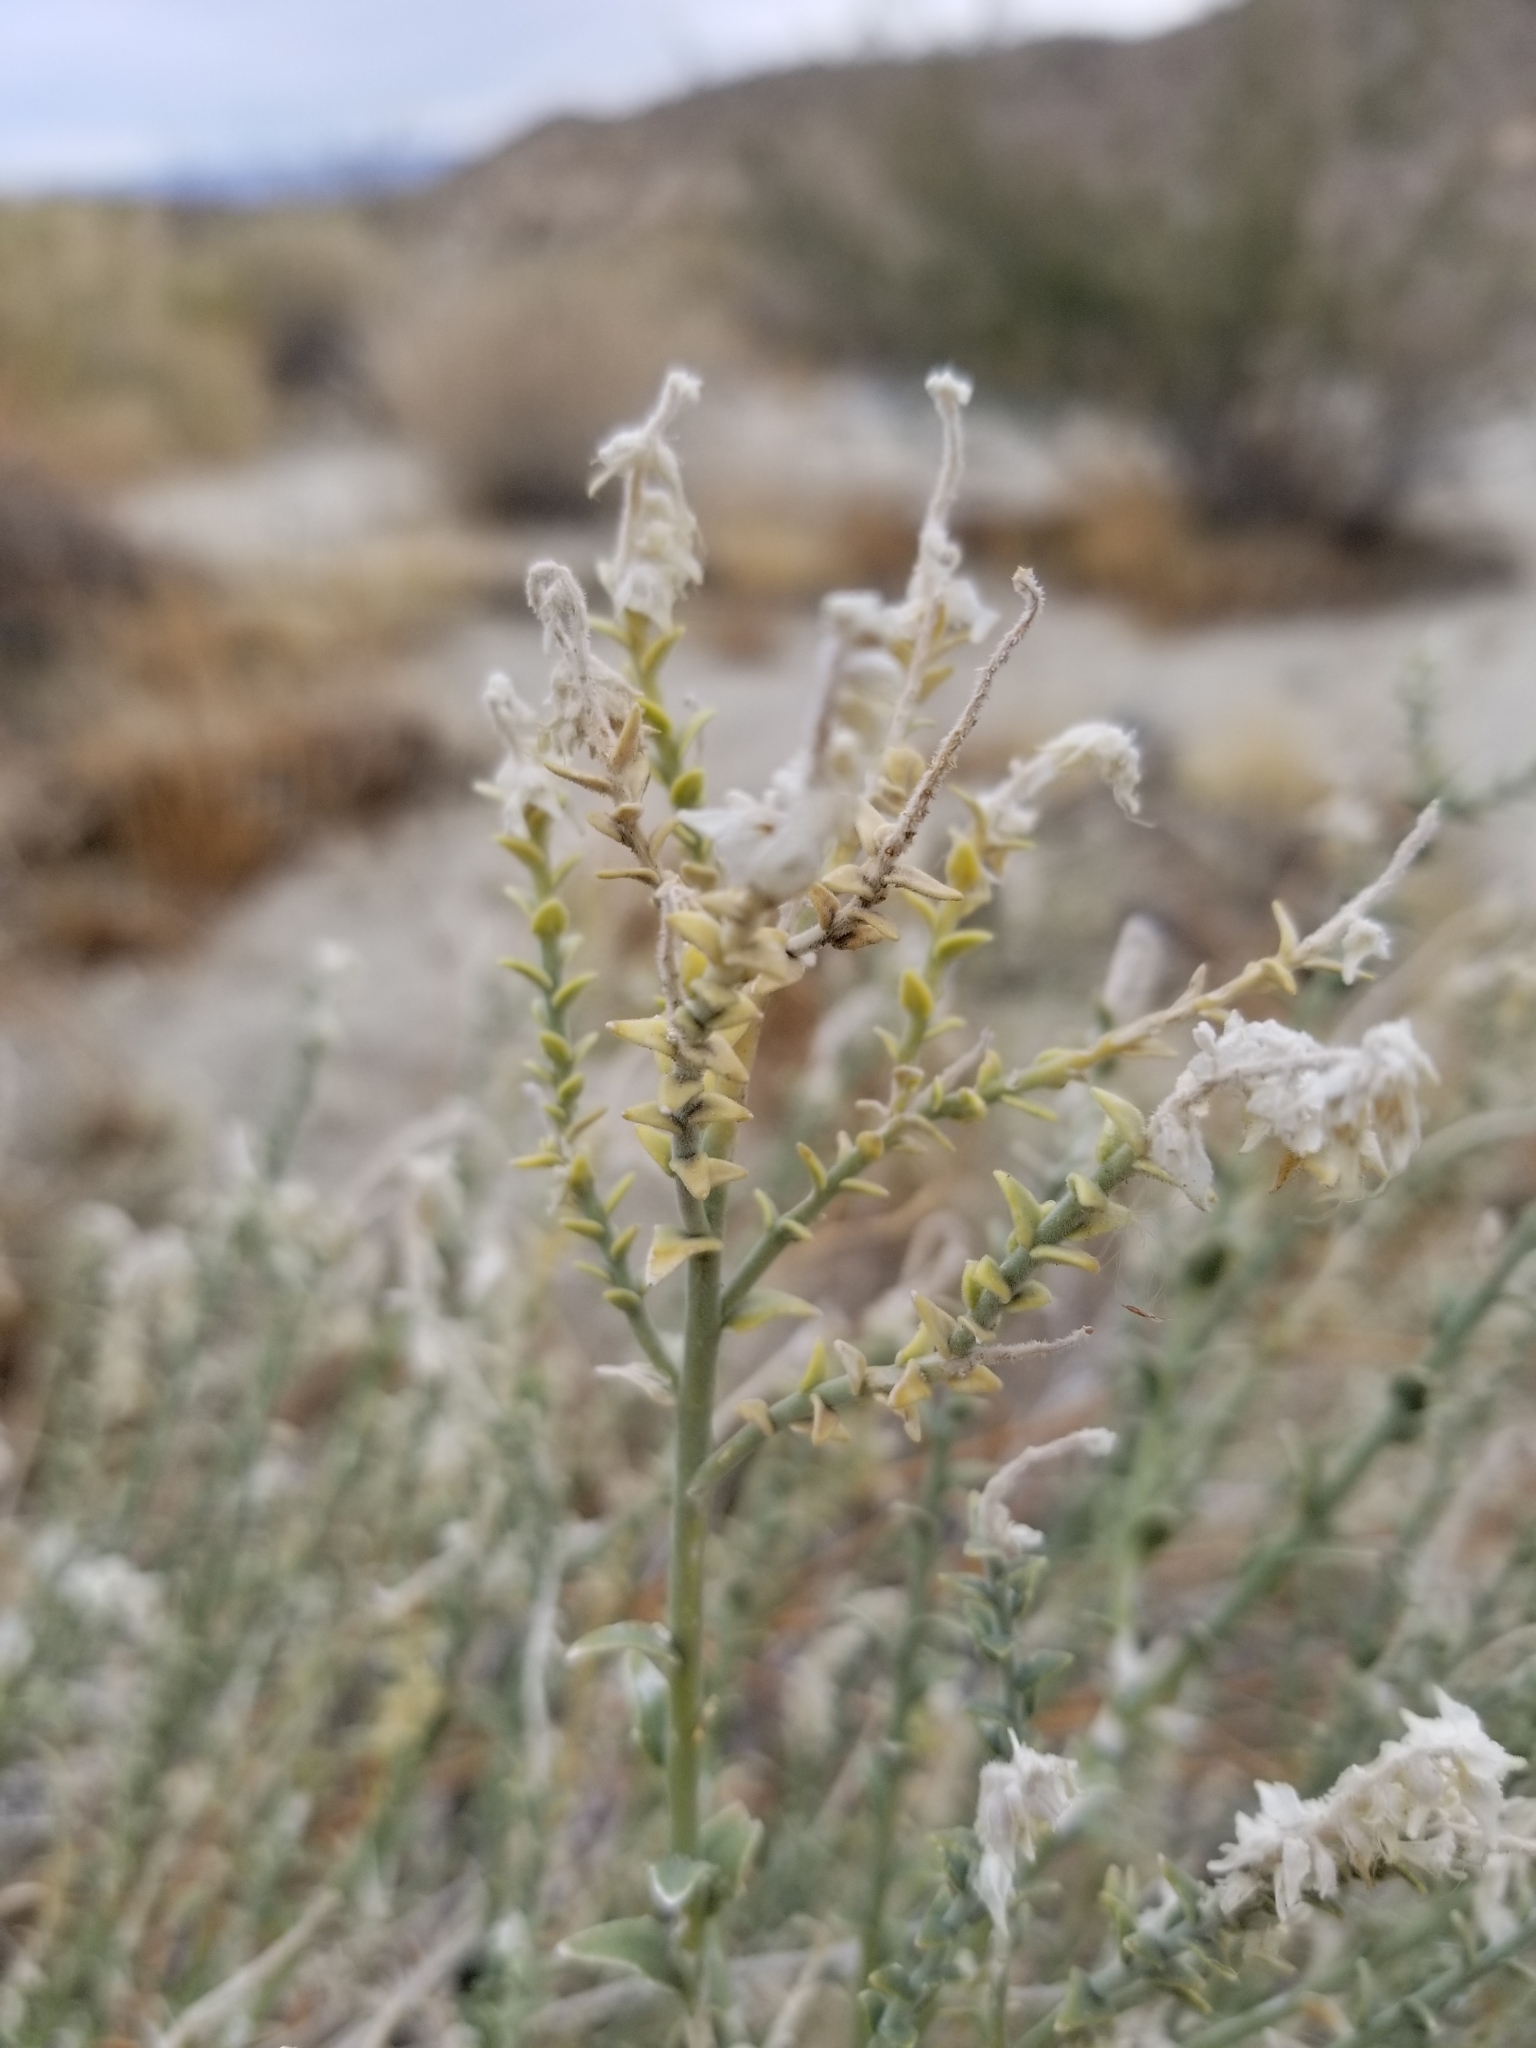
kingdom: Plantae
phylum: Tracheophyta
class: Magnoliopsida
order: Cornales
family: Loasaceae
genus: Petalonyx
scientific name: Petalonyx thurberi
